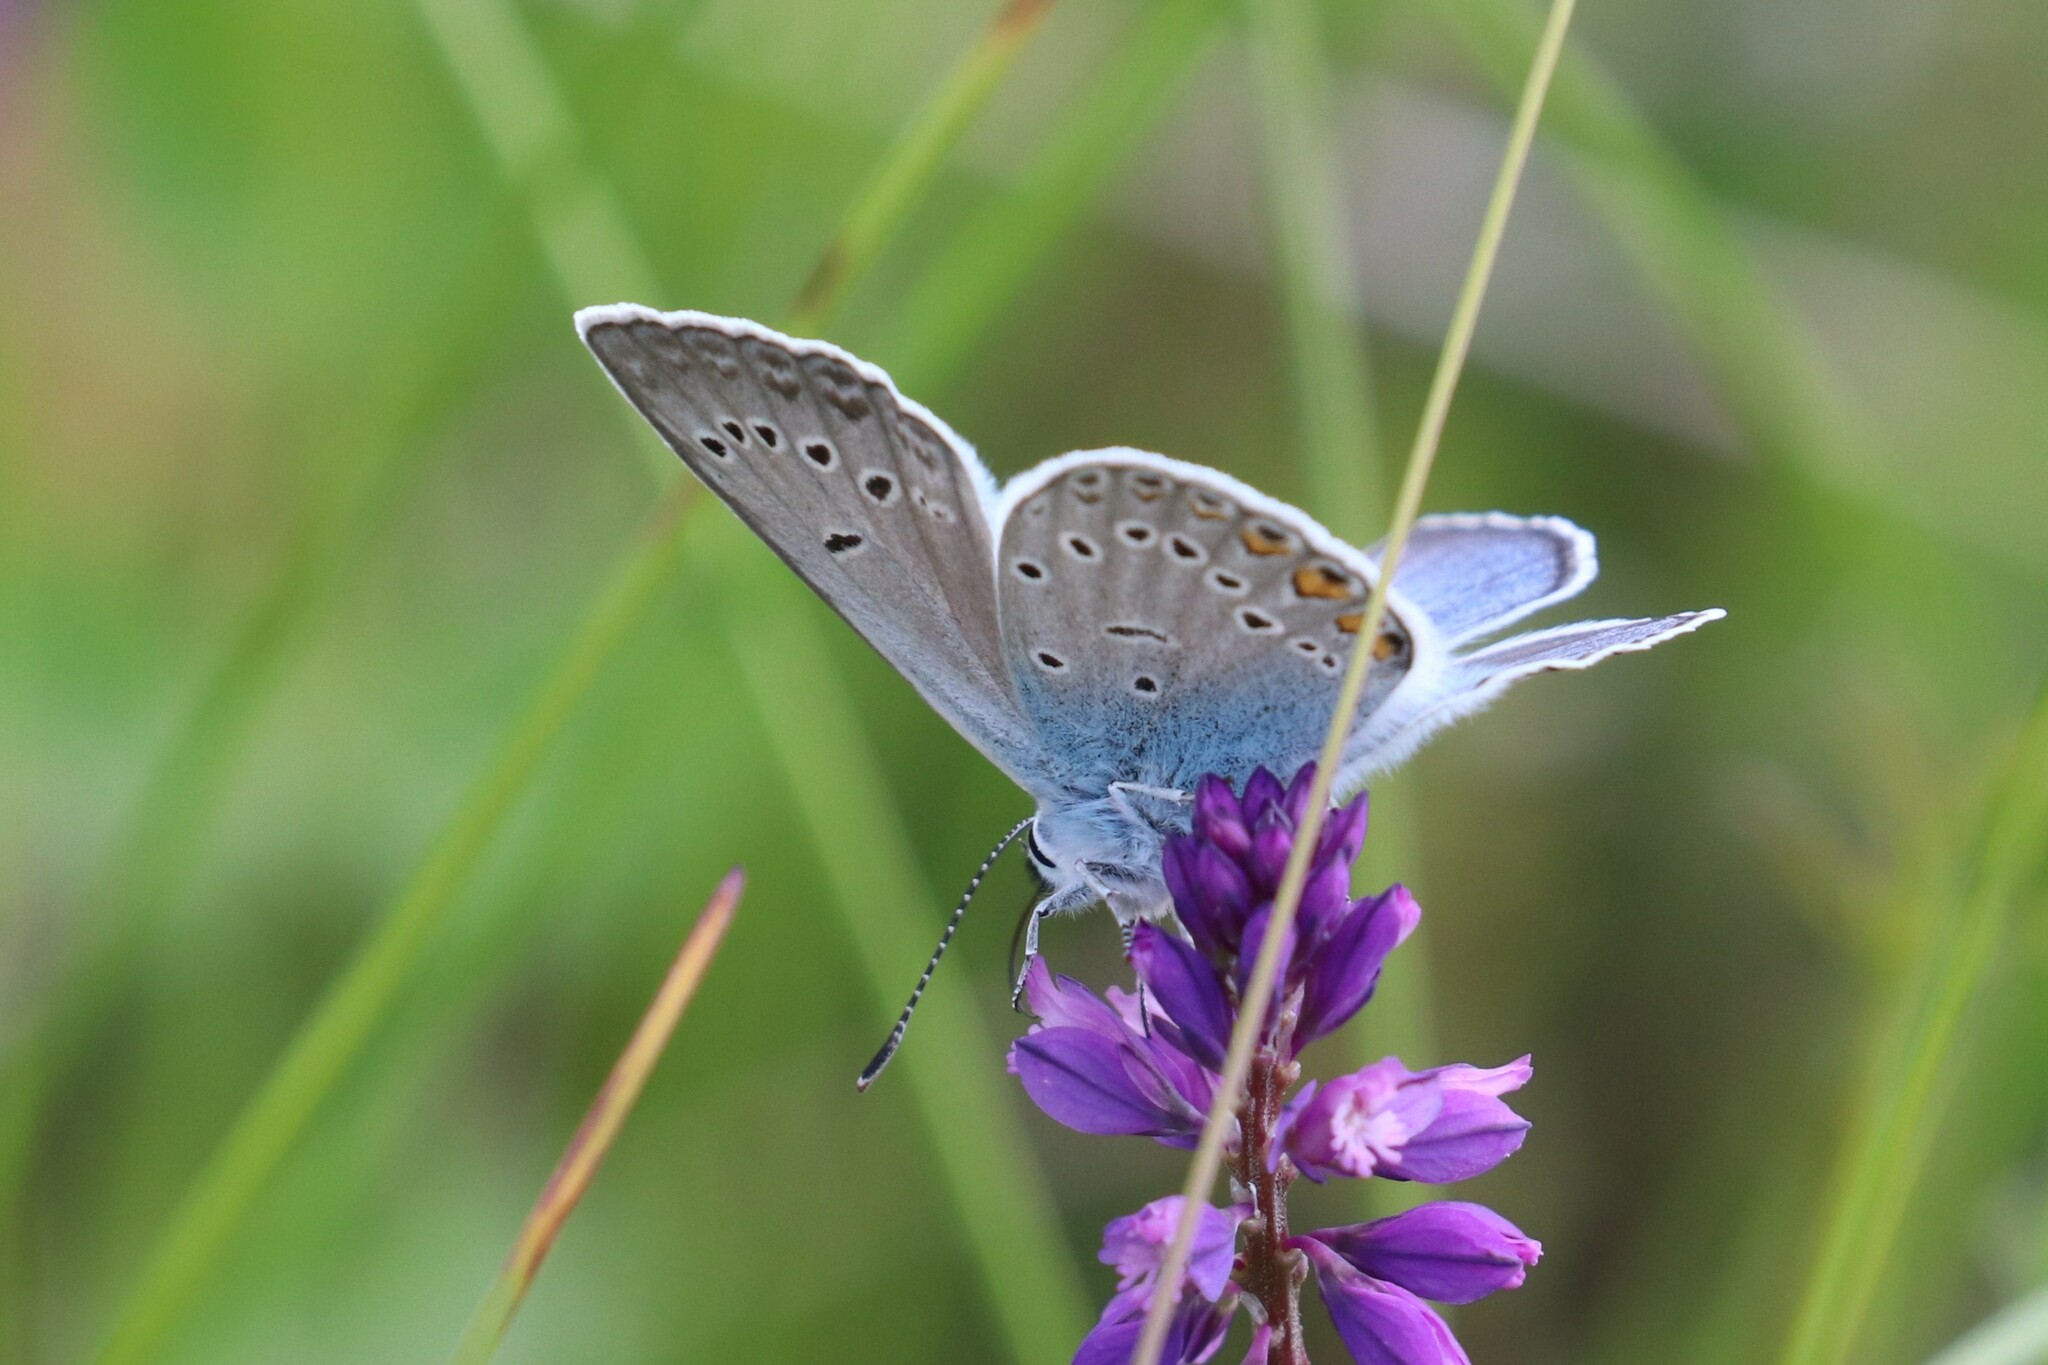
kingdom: Animalia
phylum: Arthropoda
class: Insecta
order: Lepidoptera
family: Lycaenidae
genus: Plebejus
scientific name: Plebejus amanda
